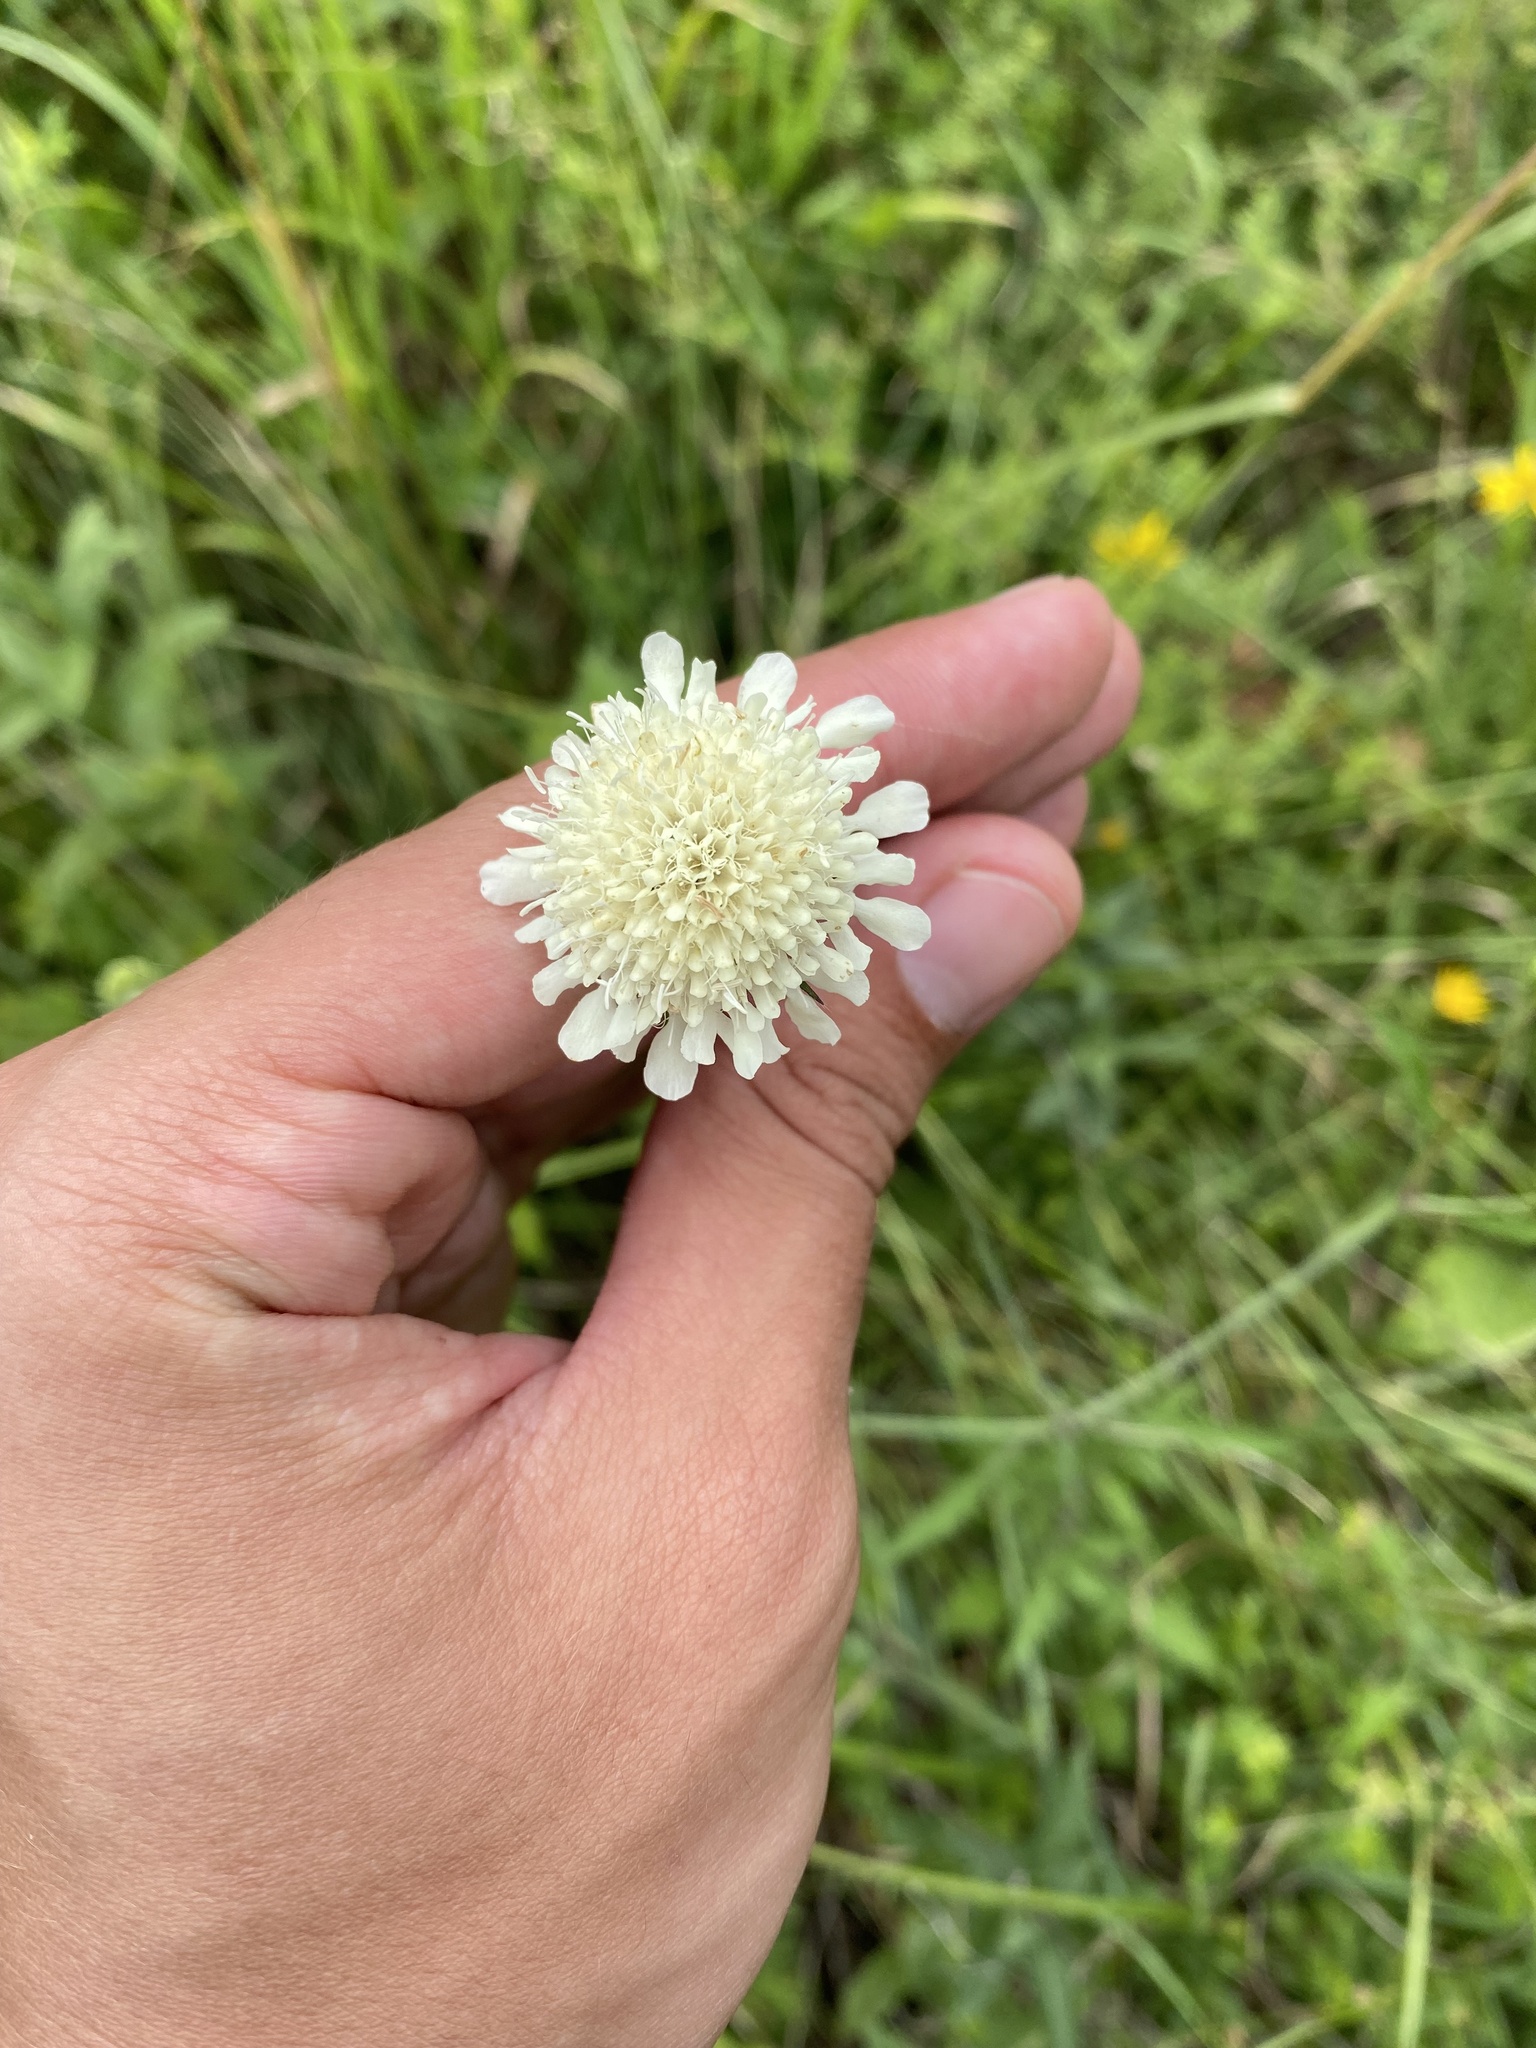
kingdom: Plantae
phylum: Tracheophyta
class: Magnoliopsida
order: Dipsacales
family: Caprifoliaceae
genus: Scabiosa
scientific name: Scabiosa ochroleuca
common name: Cream pincushions
